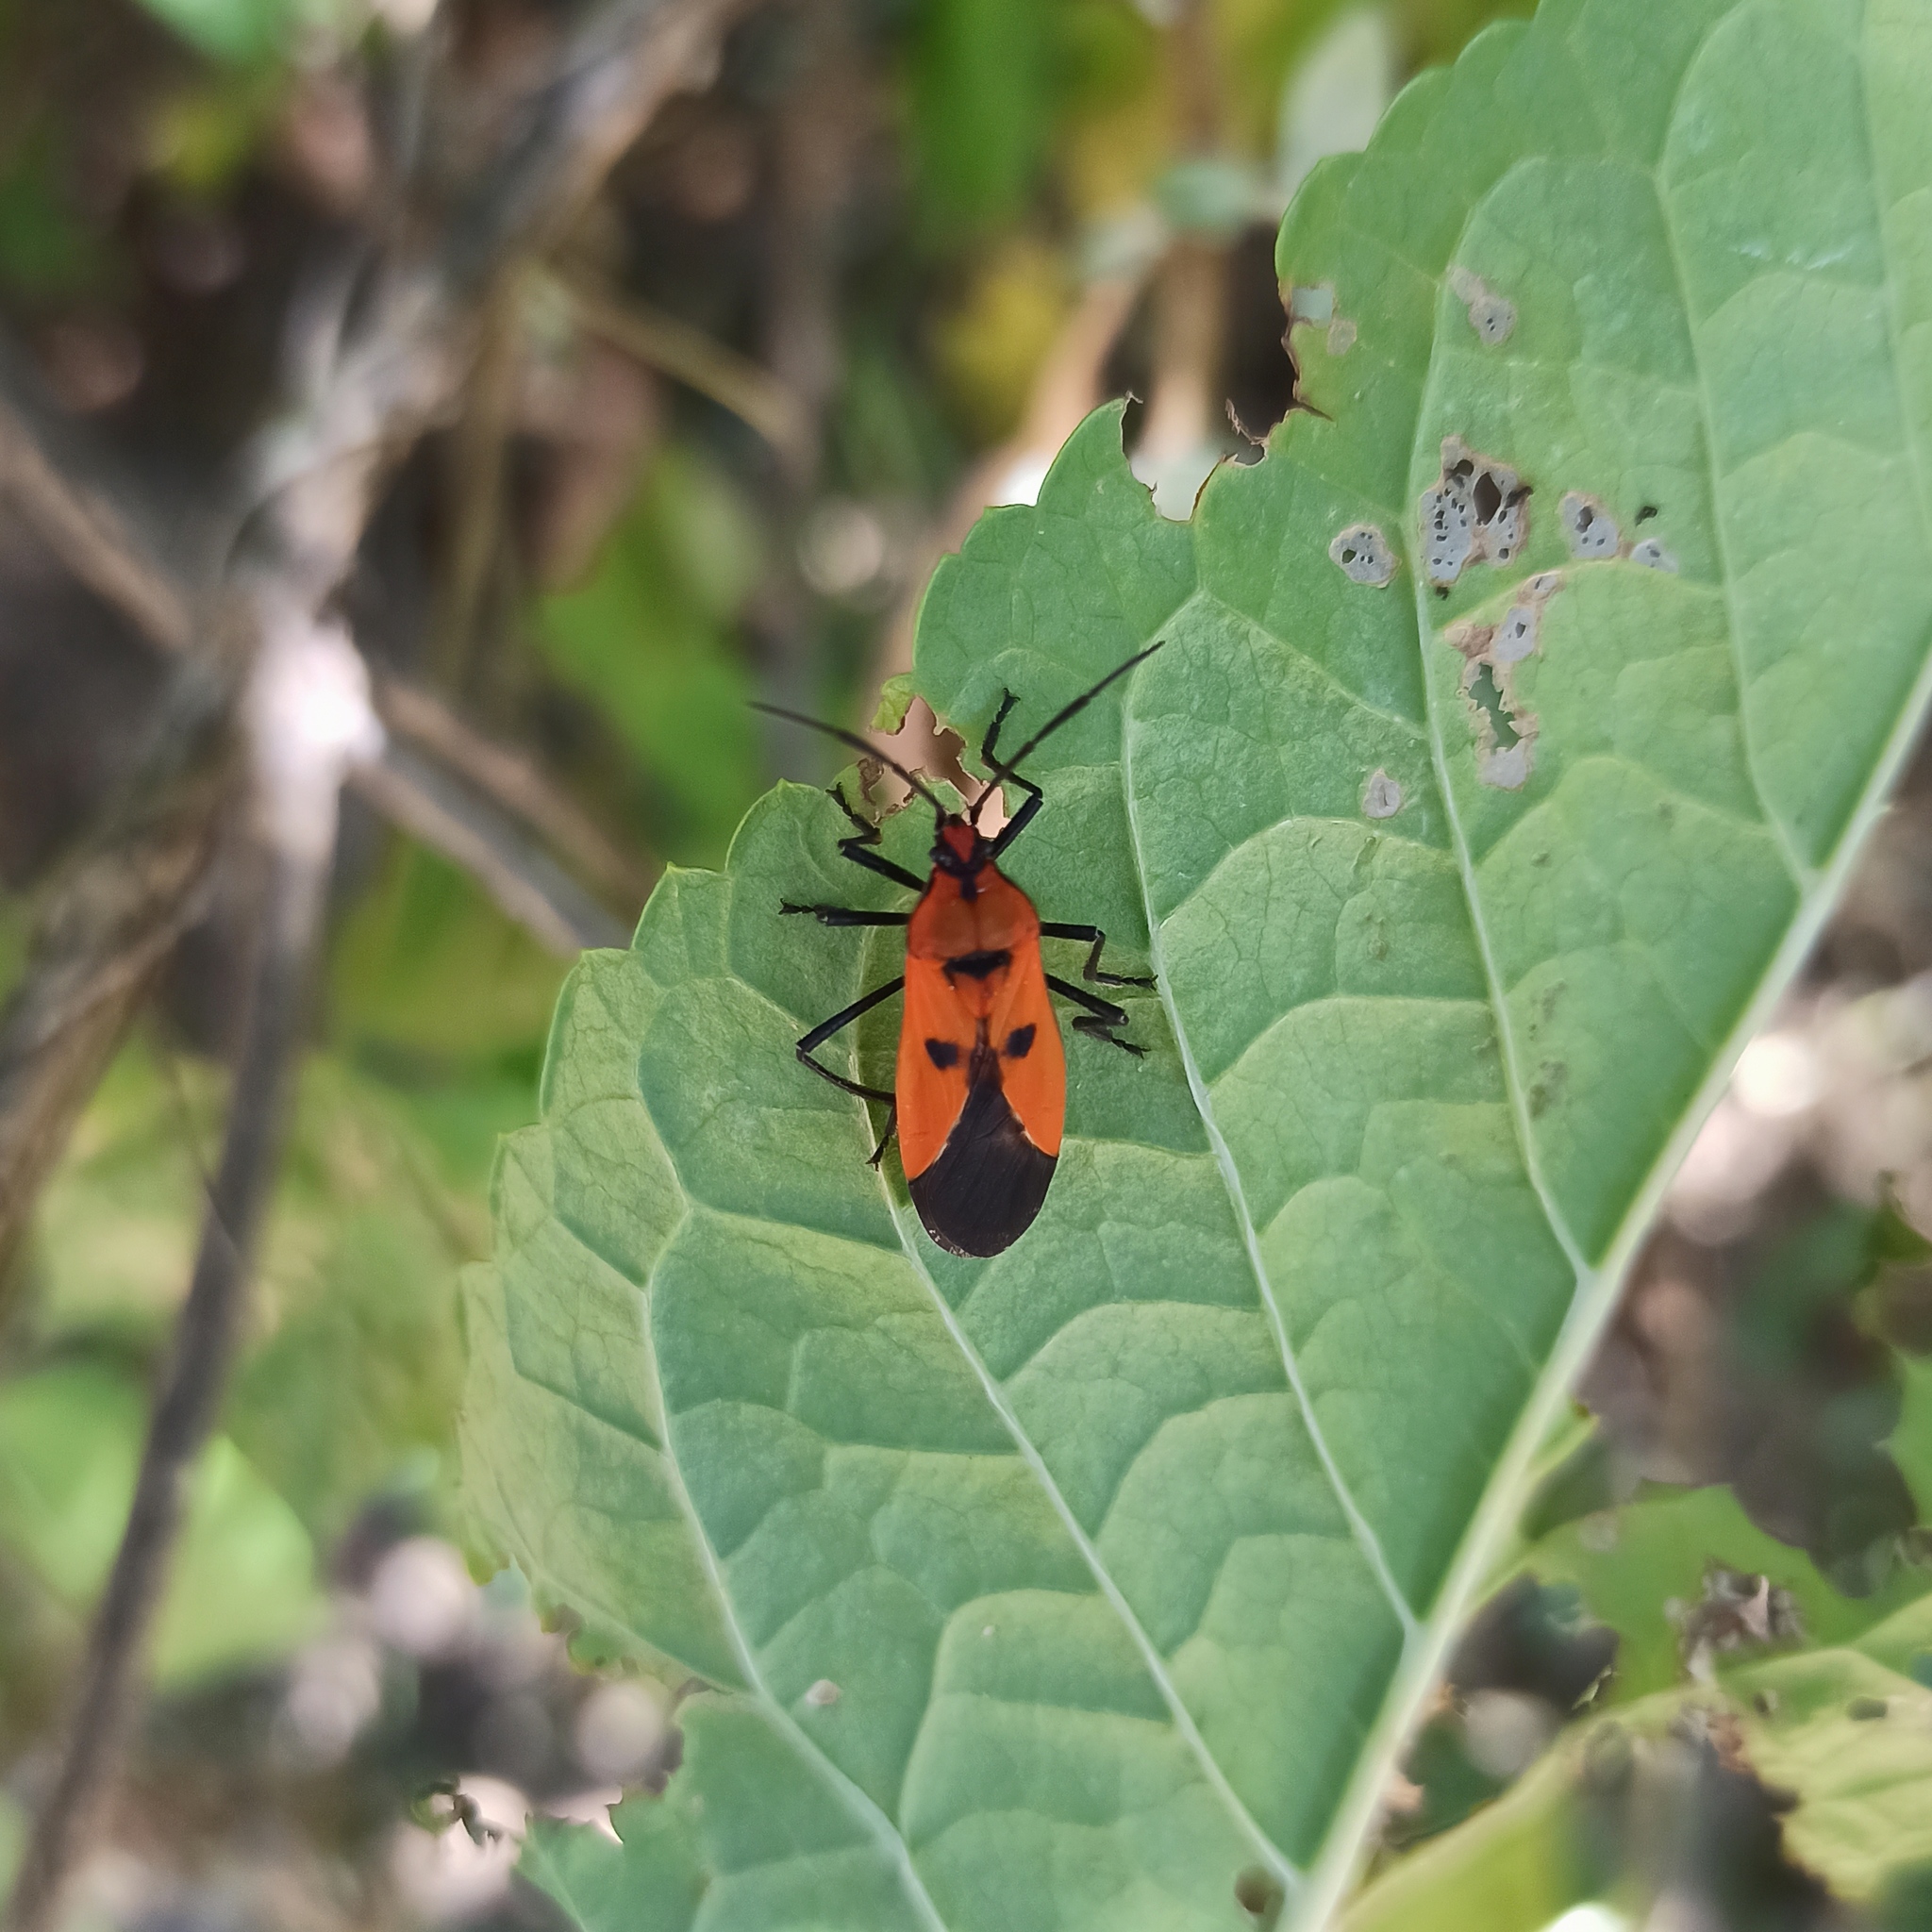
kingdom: Animalia
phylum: Arthropoda
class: Insecta
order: Hemiptera
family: Lygaeidae
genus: Oncopeltus
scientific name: Oncopeltus varicolor
